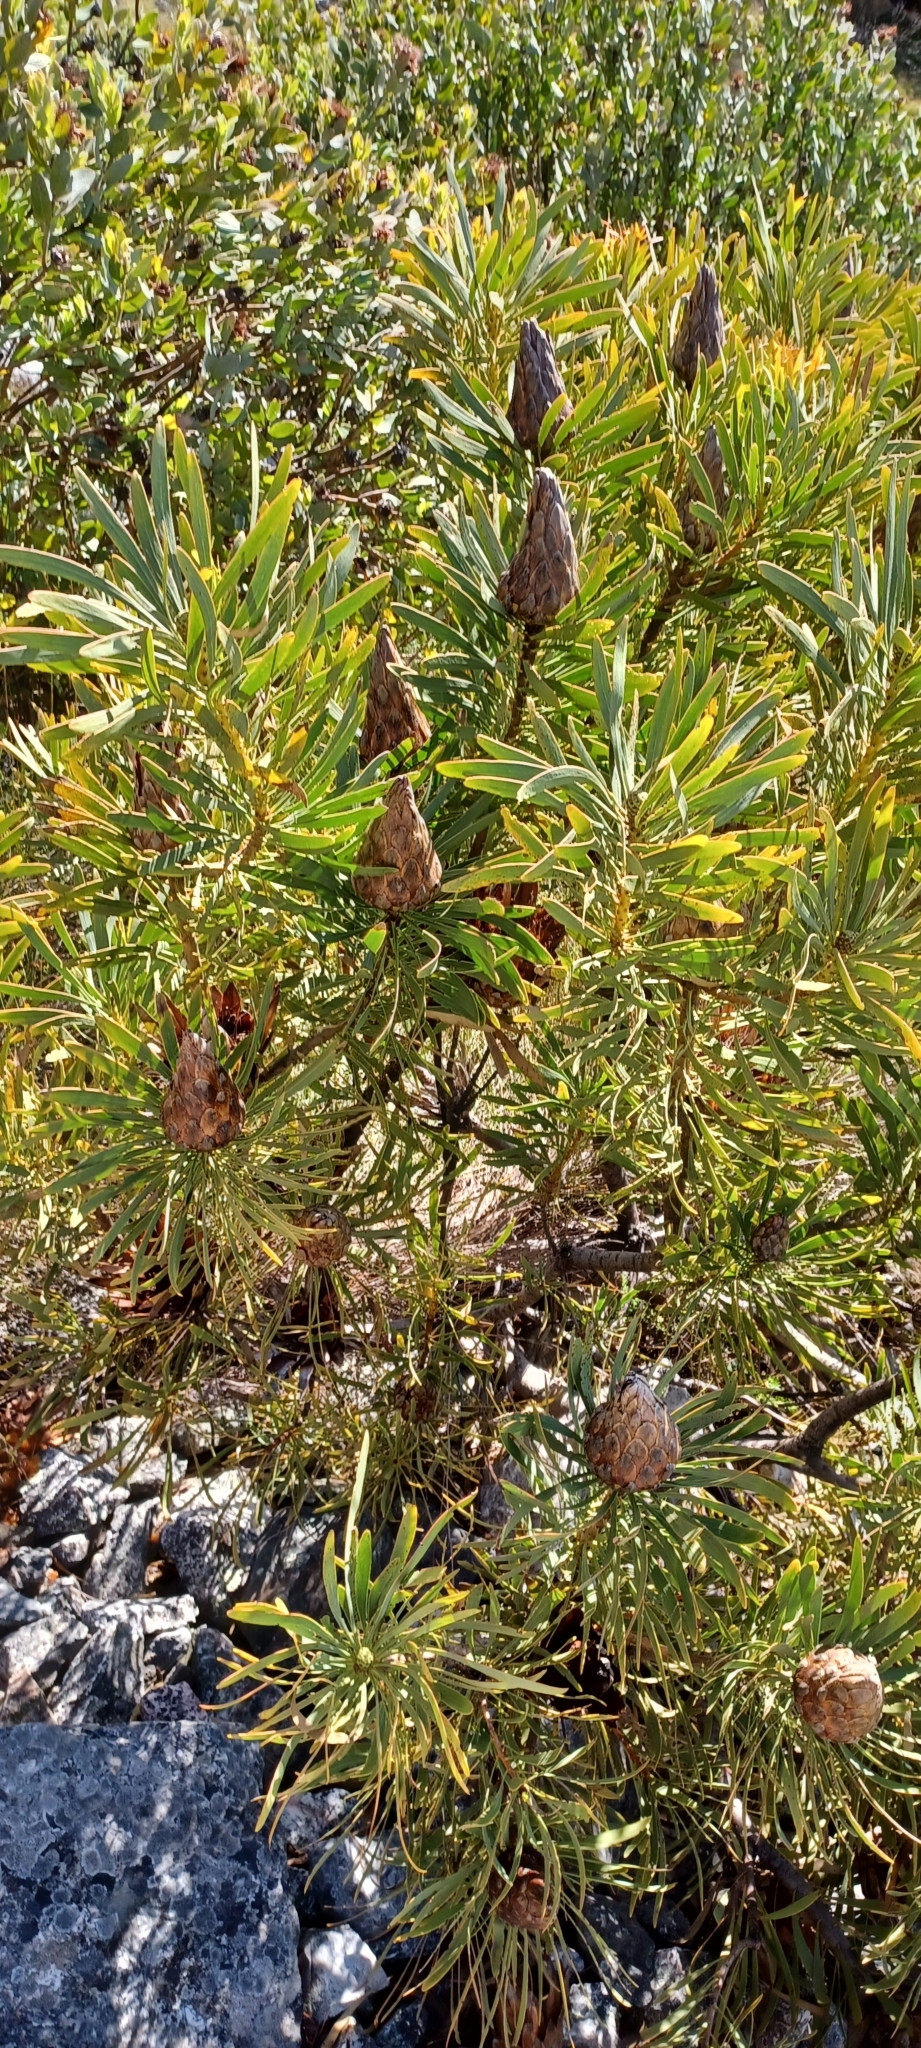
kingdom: Plantae
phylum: Tracheophyta
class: Magnoliopsida
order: Proteales
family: Proteaceae
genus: Protea
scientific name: Protea repens
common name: Sugarbush
